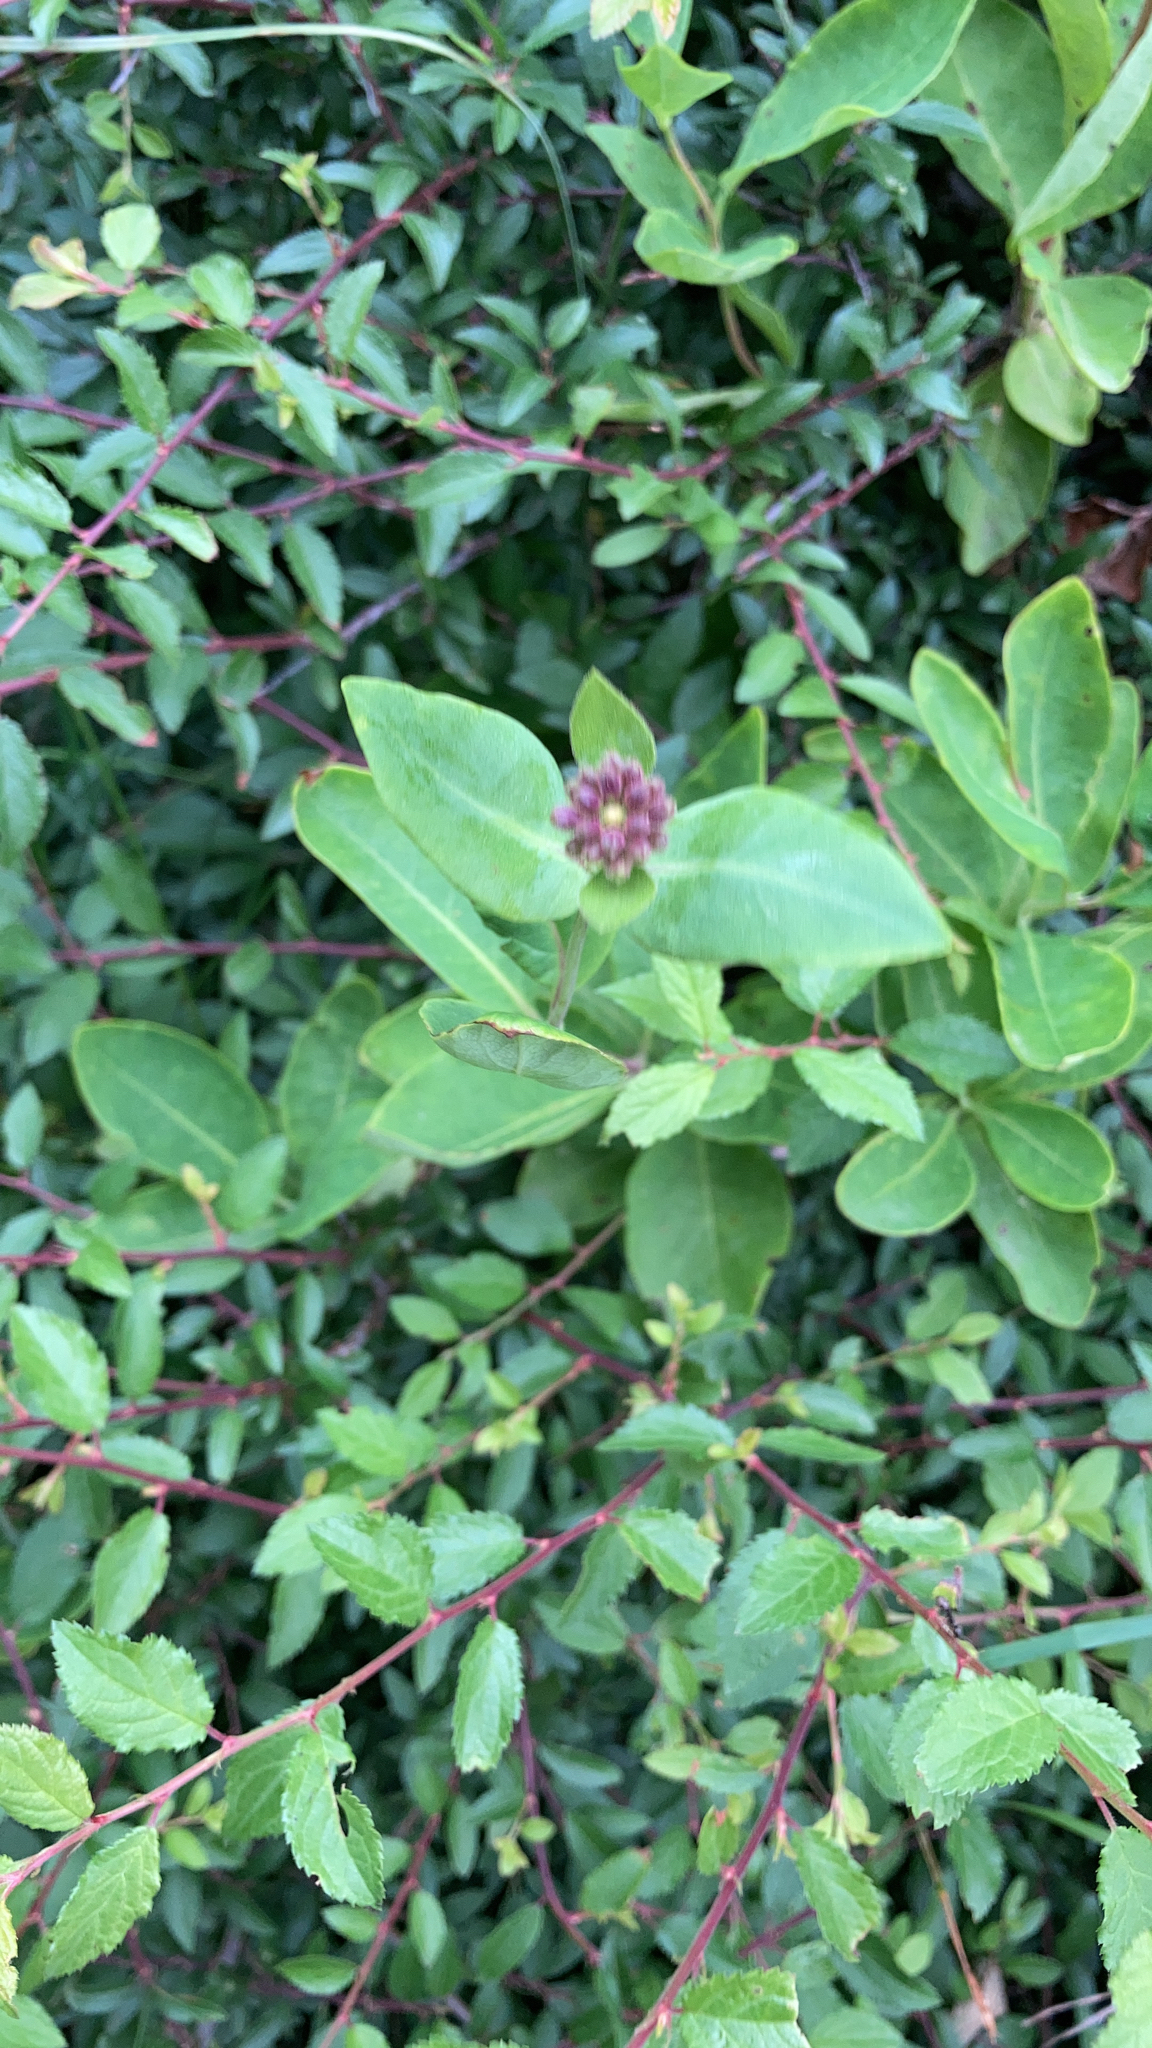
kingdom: Plantae
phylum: Tracheophyta
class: Magnoliopsida
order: Dipsacales
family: Caprifoliaceae
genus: Lonicera
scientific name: Lonicera periclymenum
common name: European honeysuckle
